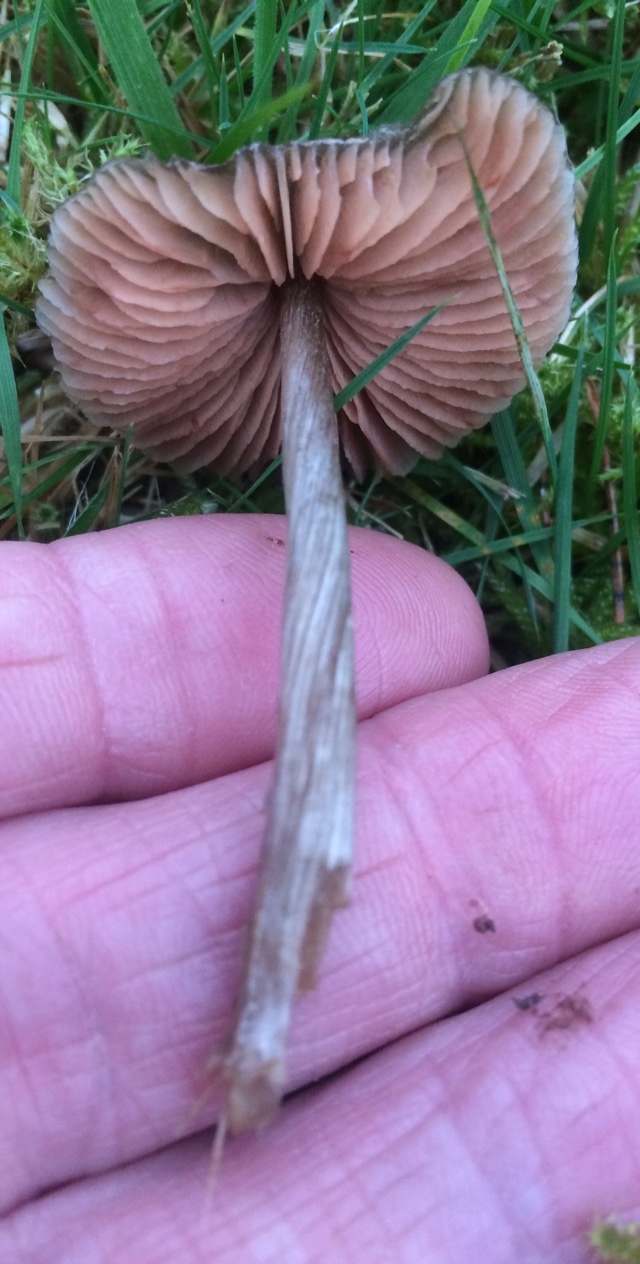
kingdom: Fungi
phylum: Basidiomycota
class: Agaricomycetes
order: Agaricales
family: Entolomataceae
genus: Entoloma
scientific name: Entoloma conferendum
